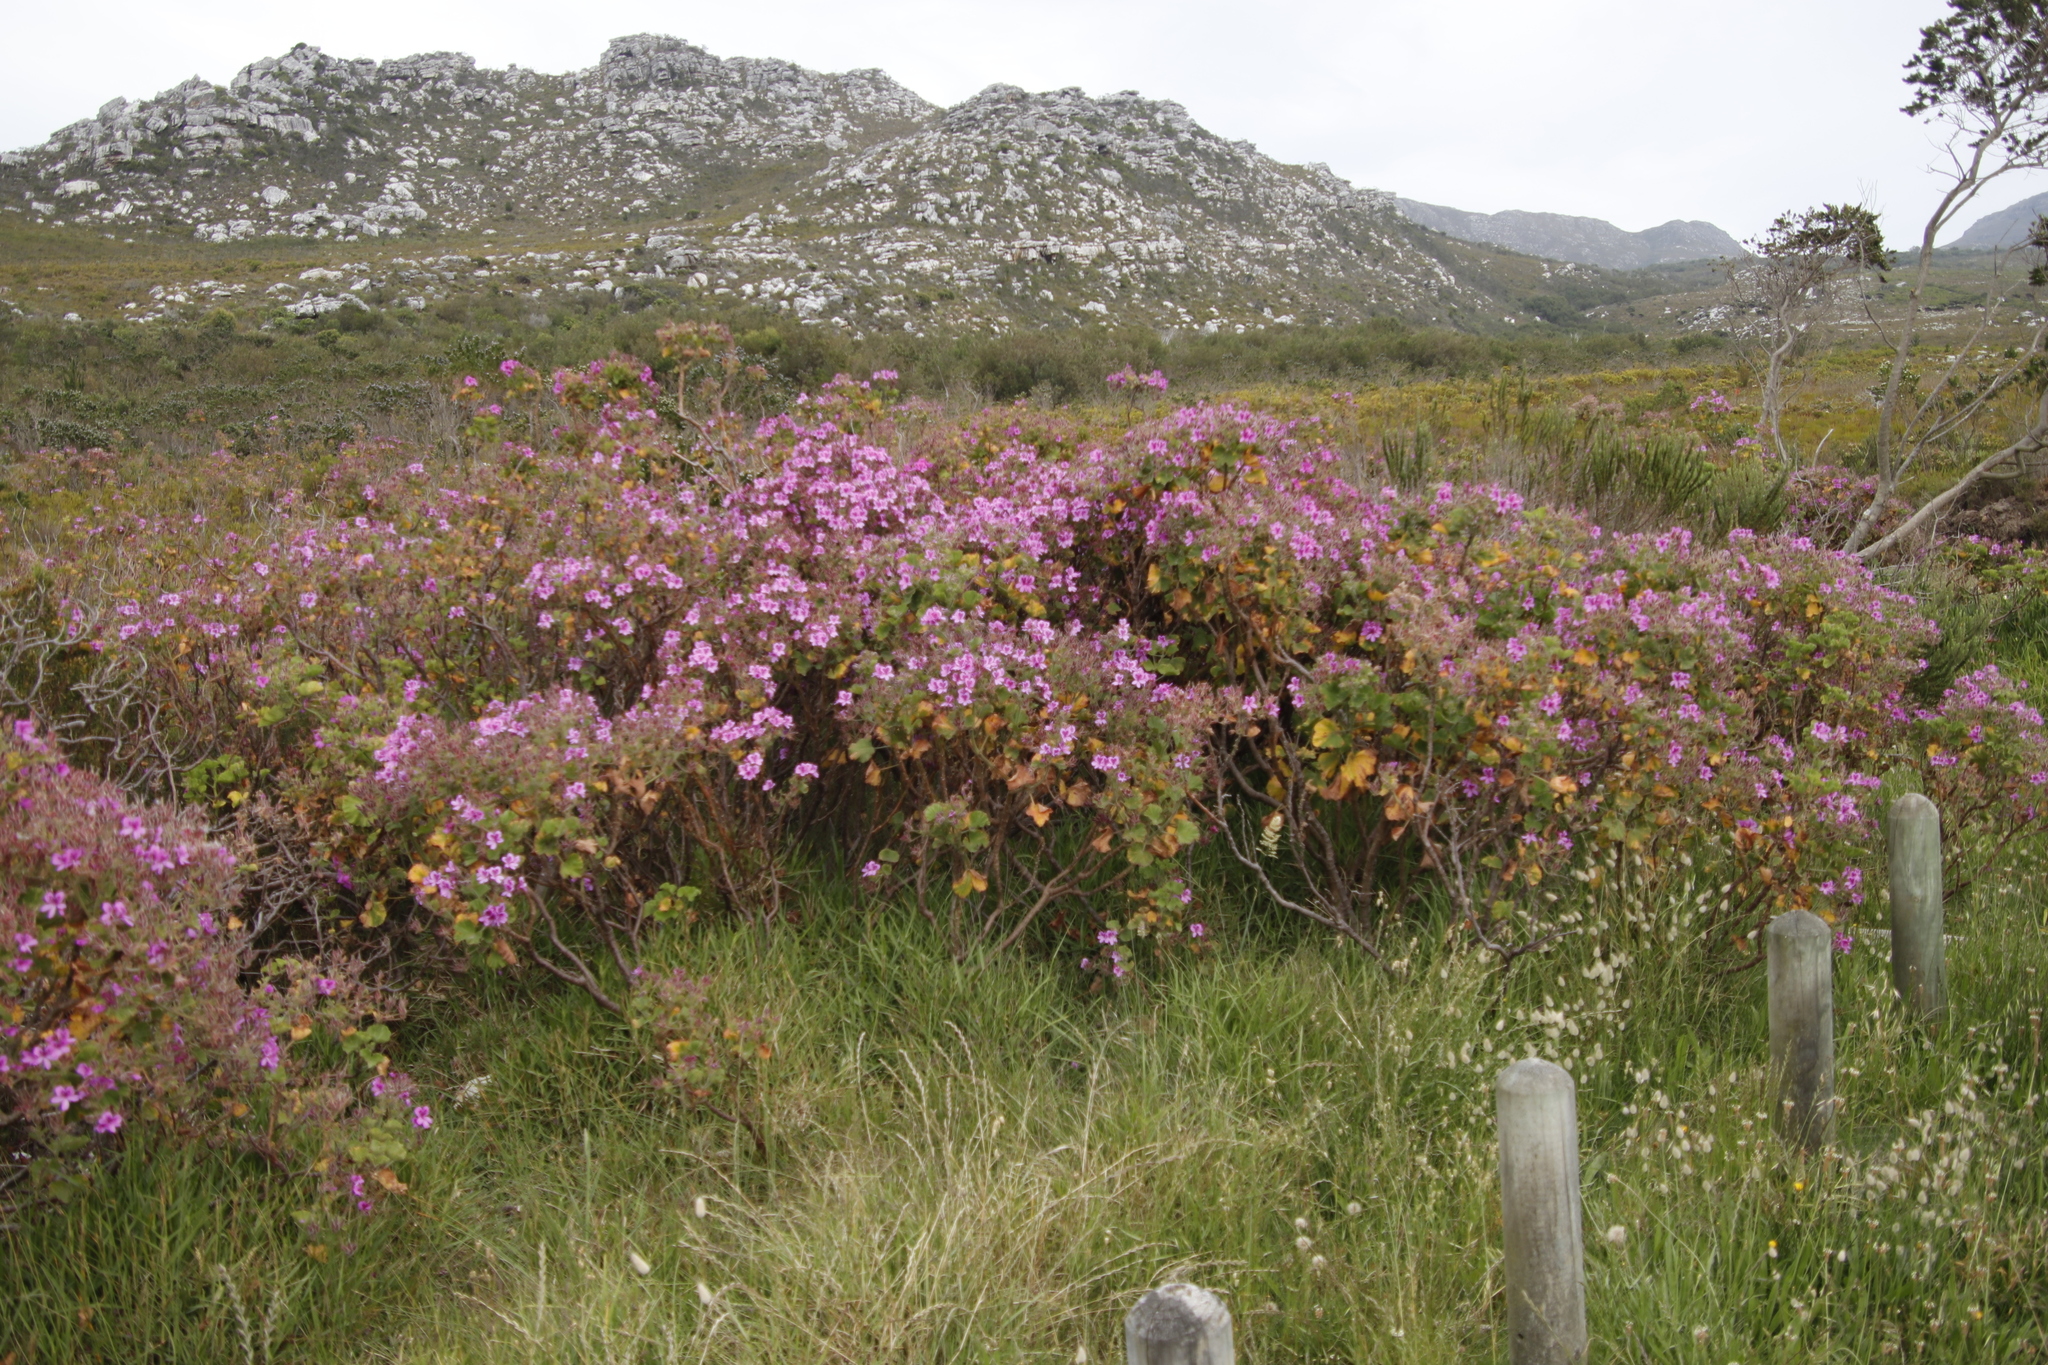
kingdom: Plantae
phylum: Tracheophyta
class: Magnoliopsida
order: Geraniales
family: Geraniaceae
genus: Pelargonium
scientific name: Pelargonium cucullatum
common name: Tree pelargonium
